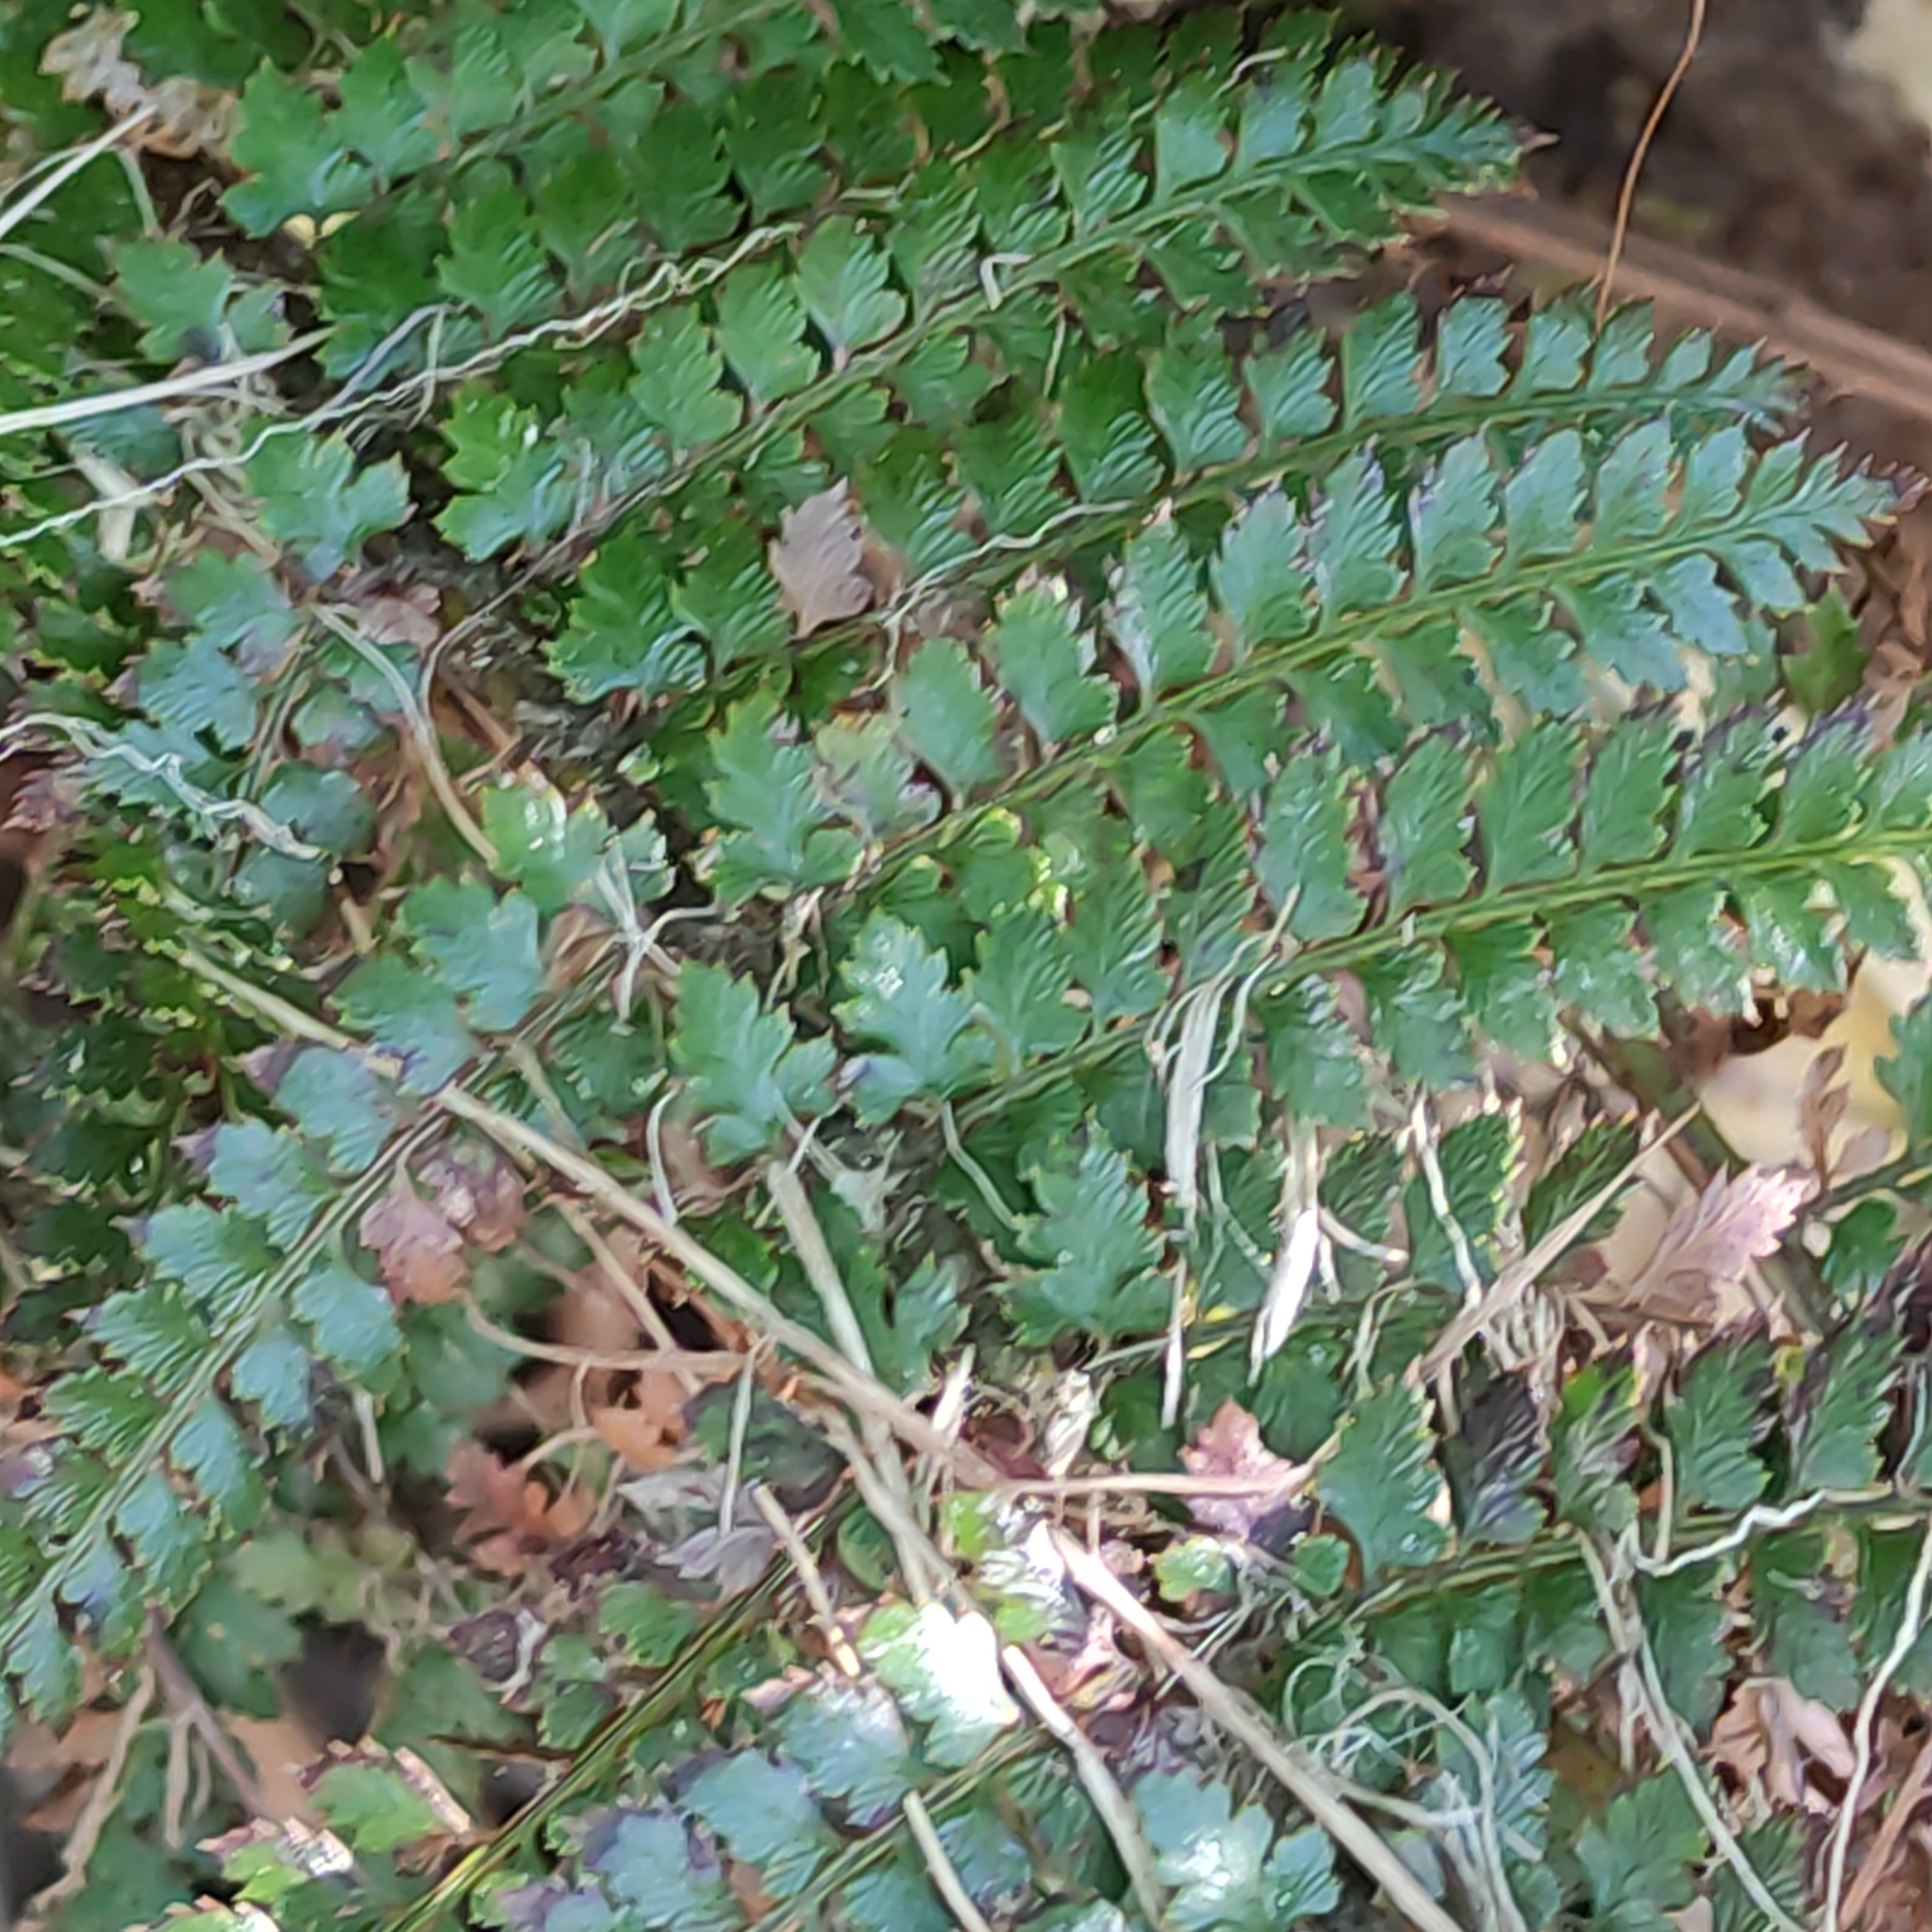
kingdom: Plantae
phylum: Tracheophyta
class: Polypodiopsida
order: Polypodiales
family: Dryopteridaceae
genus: Polystichum
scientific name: Polystichum vestitum
